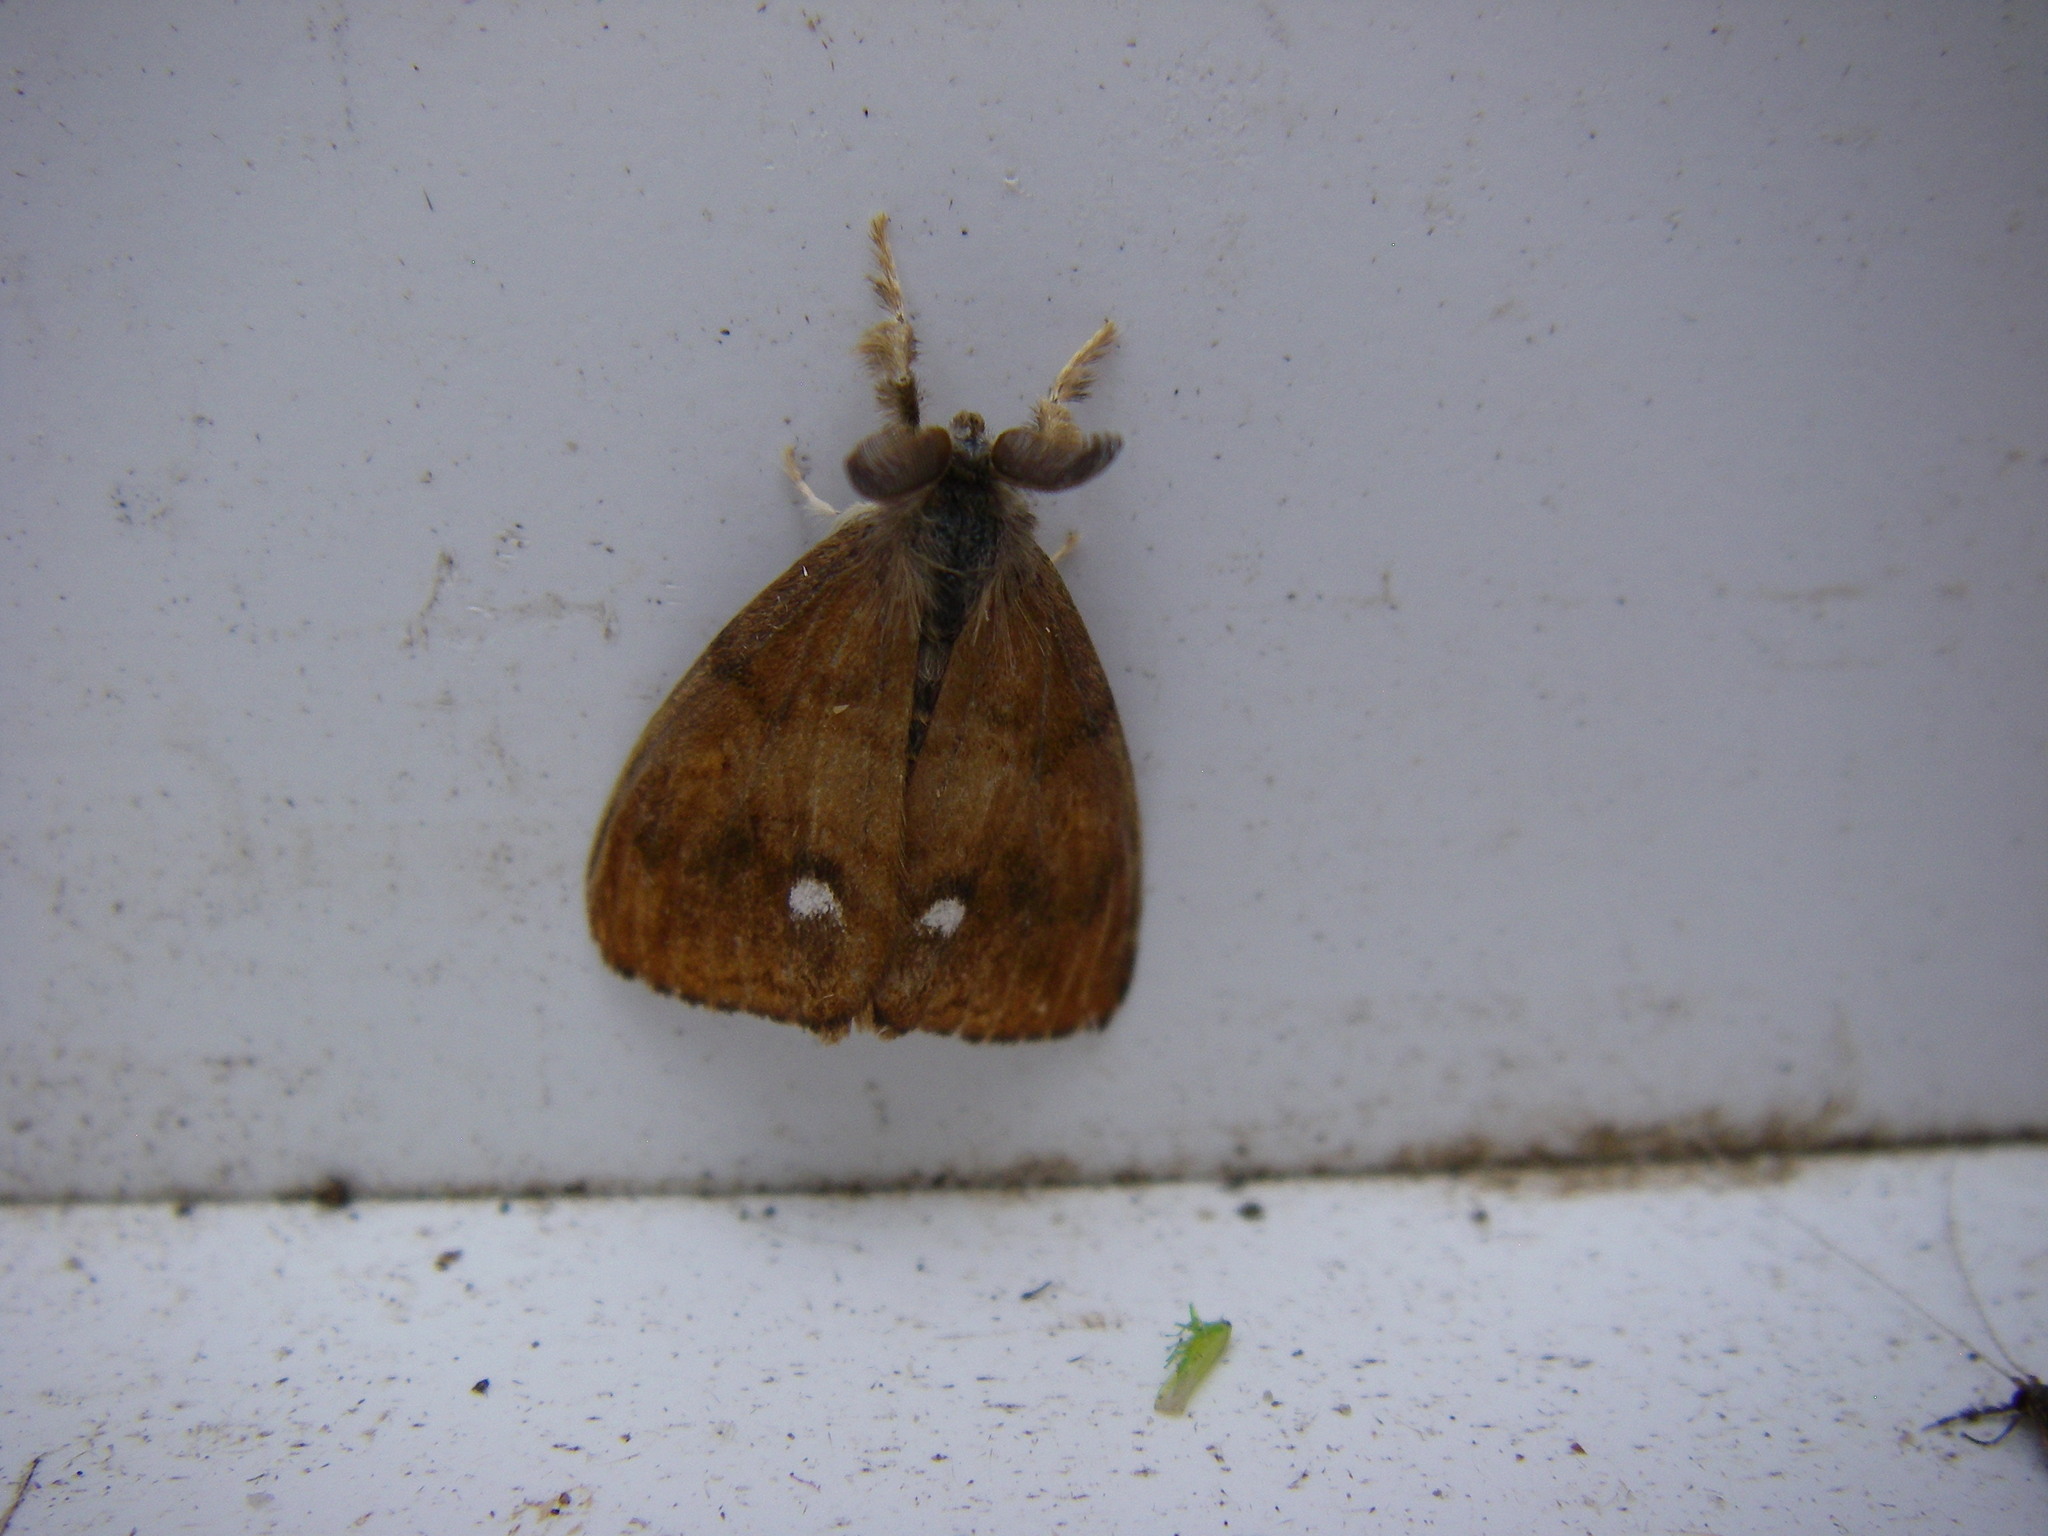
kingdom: Animalia
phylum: Arthropoda
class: Insecta
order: Lepidoptera
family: Erebidae
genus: Orgyia
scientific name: Orgyia antiqua
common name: Vapourer
